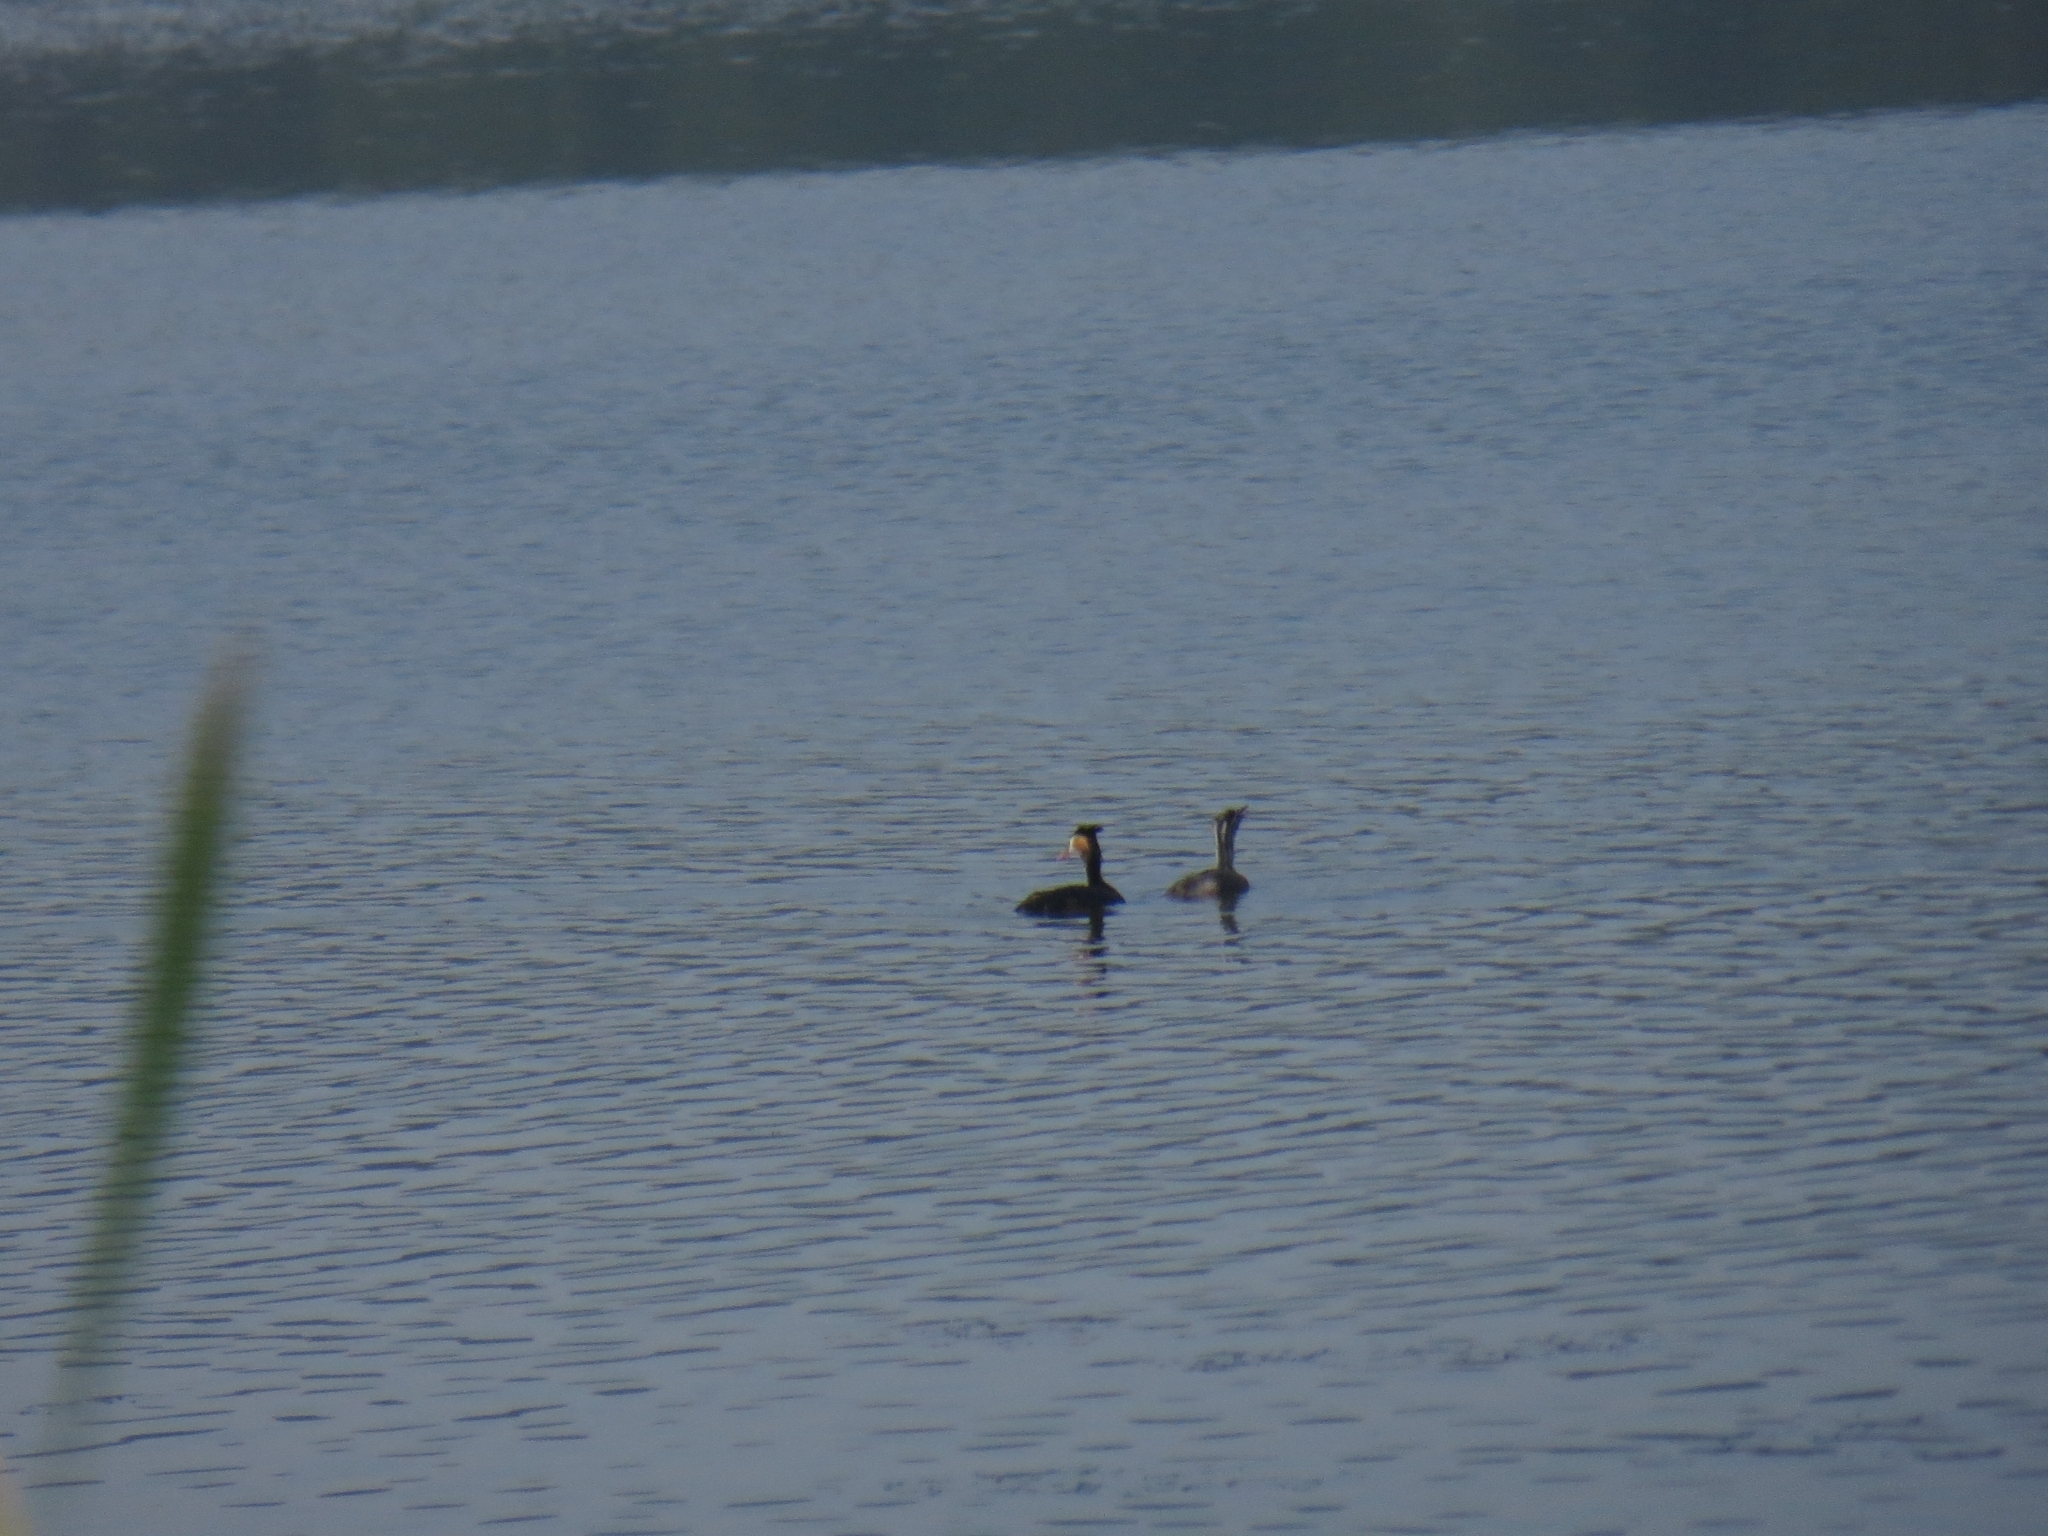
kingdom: Animalia
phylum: Chordata
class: Aves
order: Podicipediformes
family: Podicipedidae
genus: Podiceps
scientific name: Podiceps cristatus
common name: Great crested grebe
